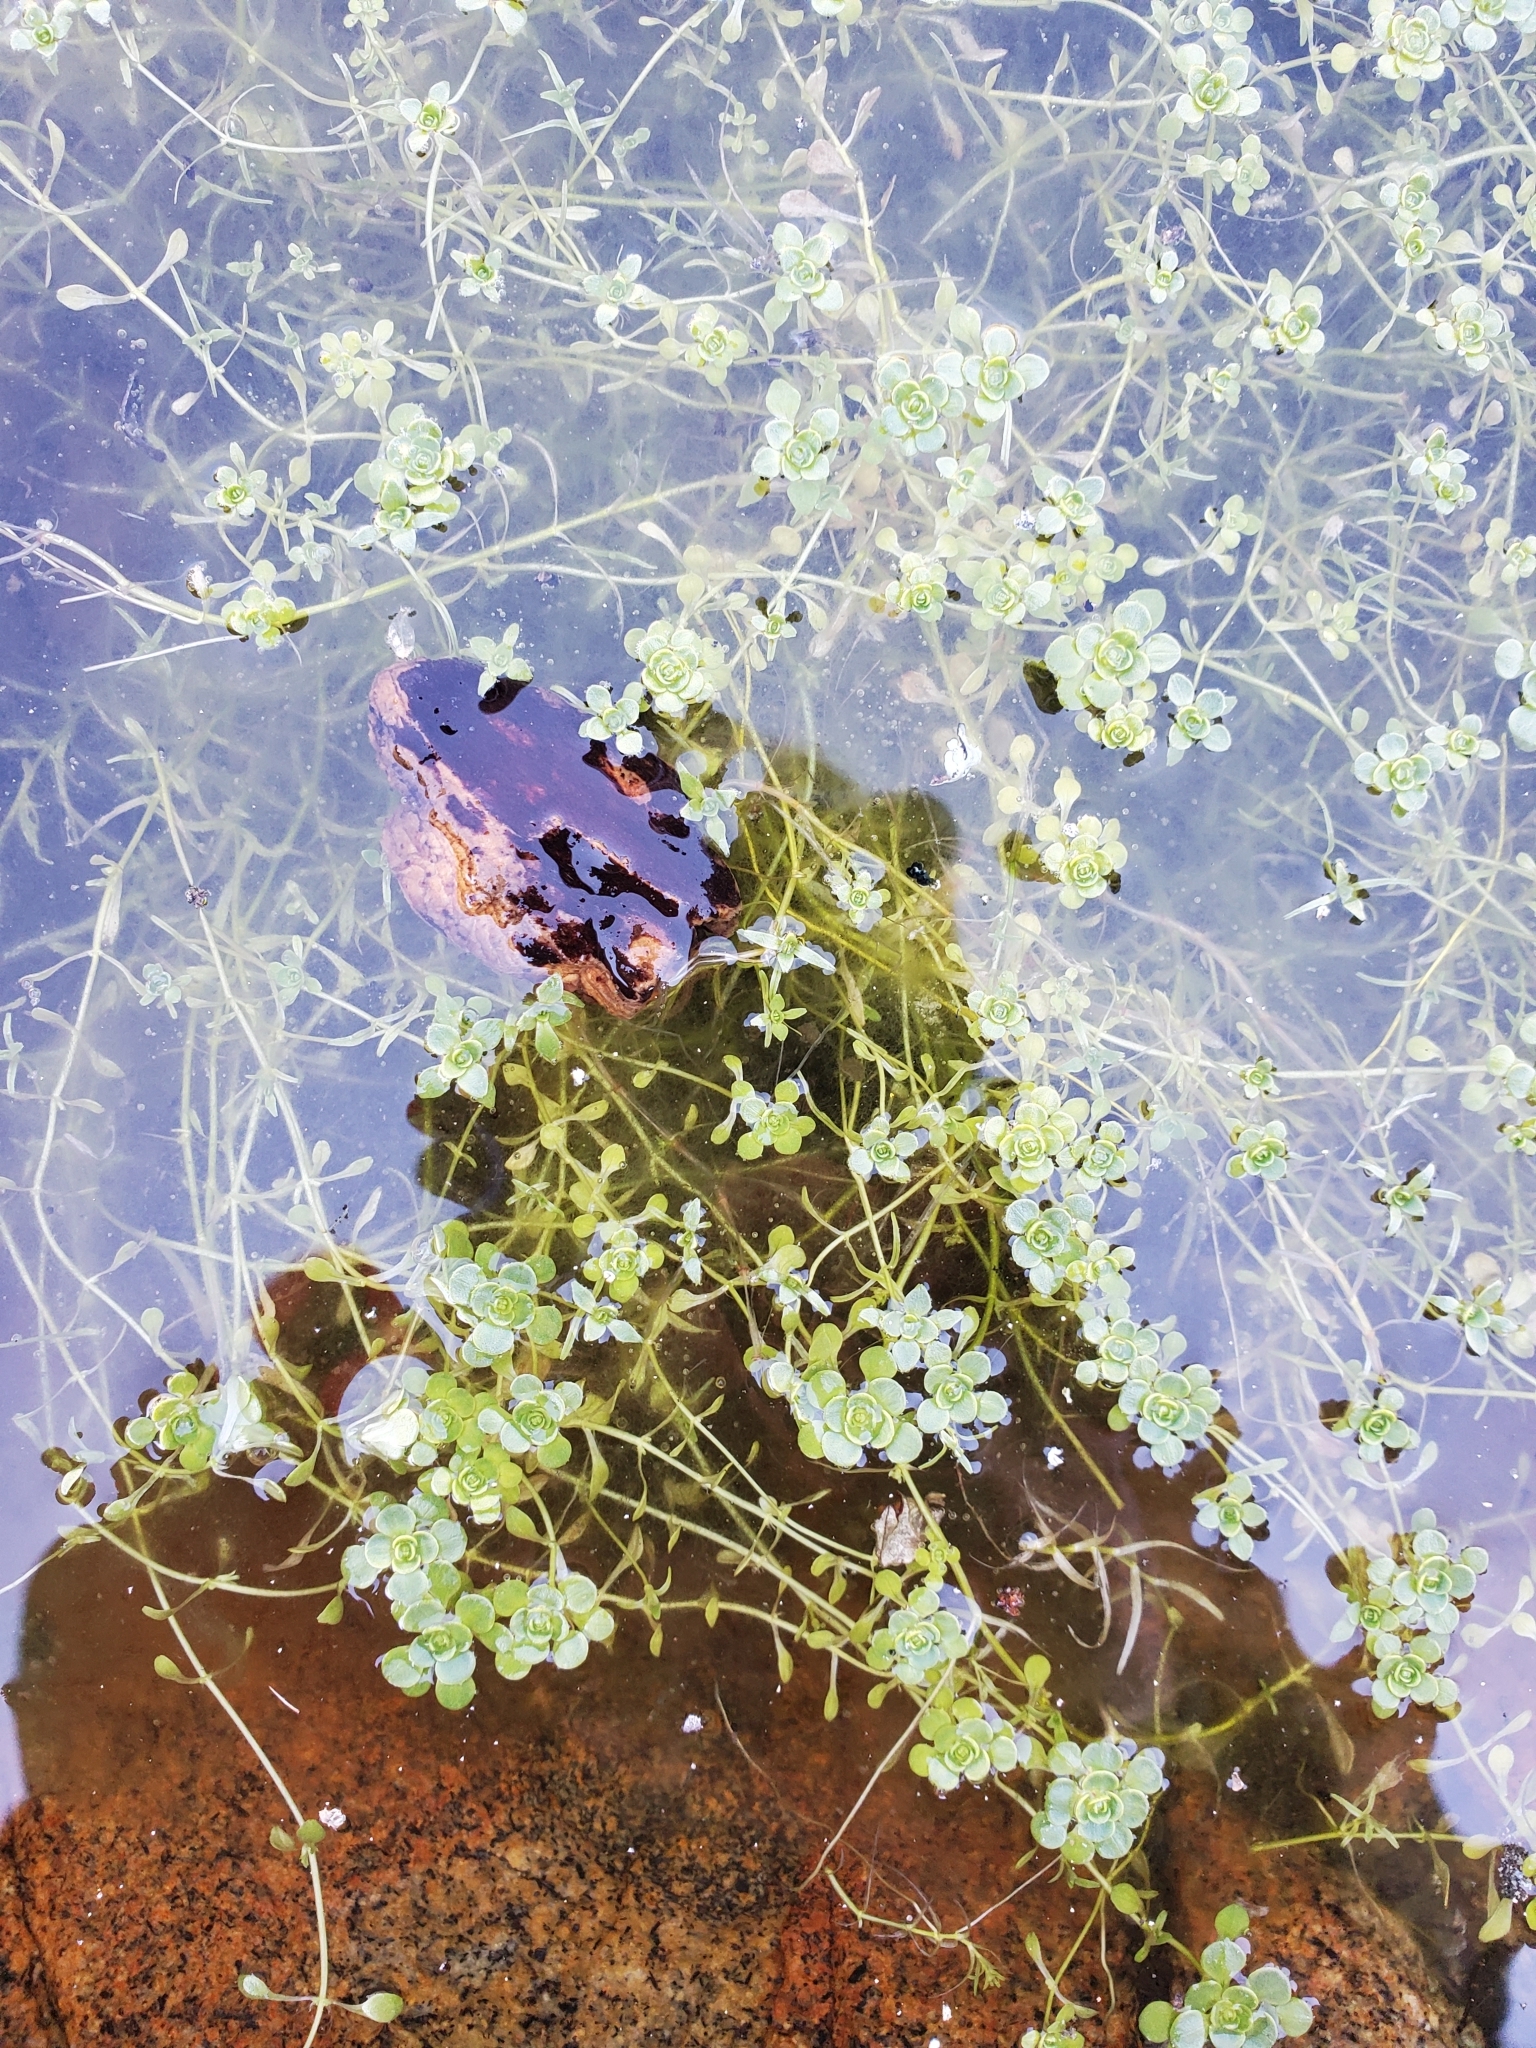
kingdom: Plantae
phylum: Tracheophyta
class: Magnoliopsida
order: Lamiales
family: Plantaginaceae
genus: Callitriche
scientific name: Callitriche heterophylla
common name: Two-headed water-starwort
